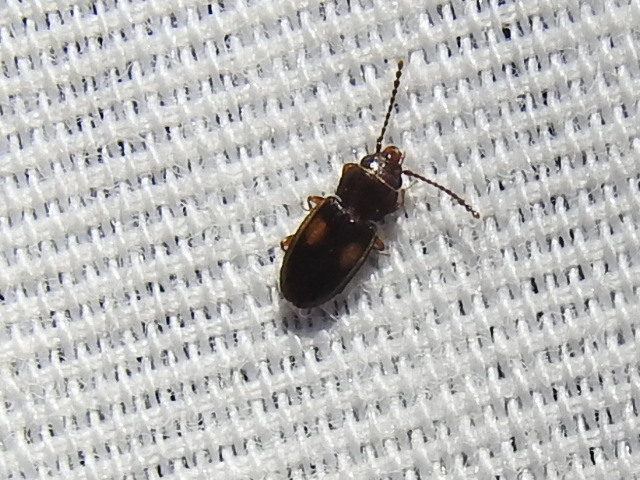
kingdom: Animalia
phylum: Arthropoda
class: Insecta
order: Coleoptera
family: Laemophloeidae
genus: Laemophloeus
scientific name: Laemophloeus biguttatus
